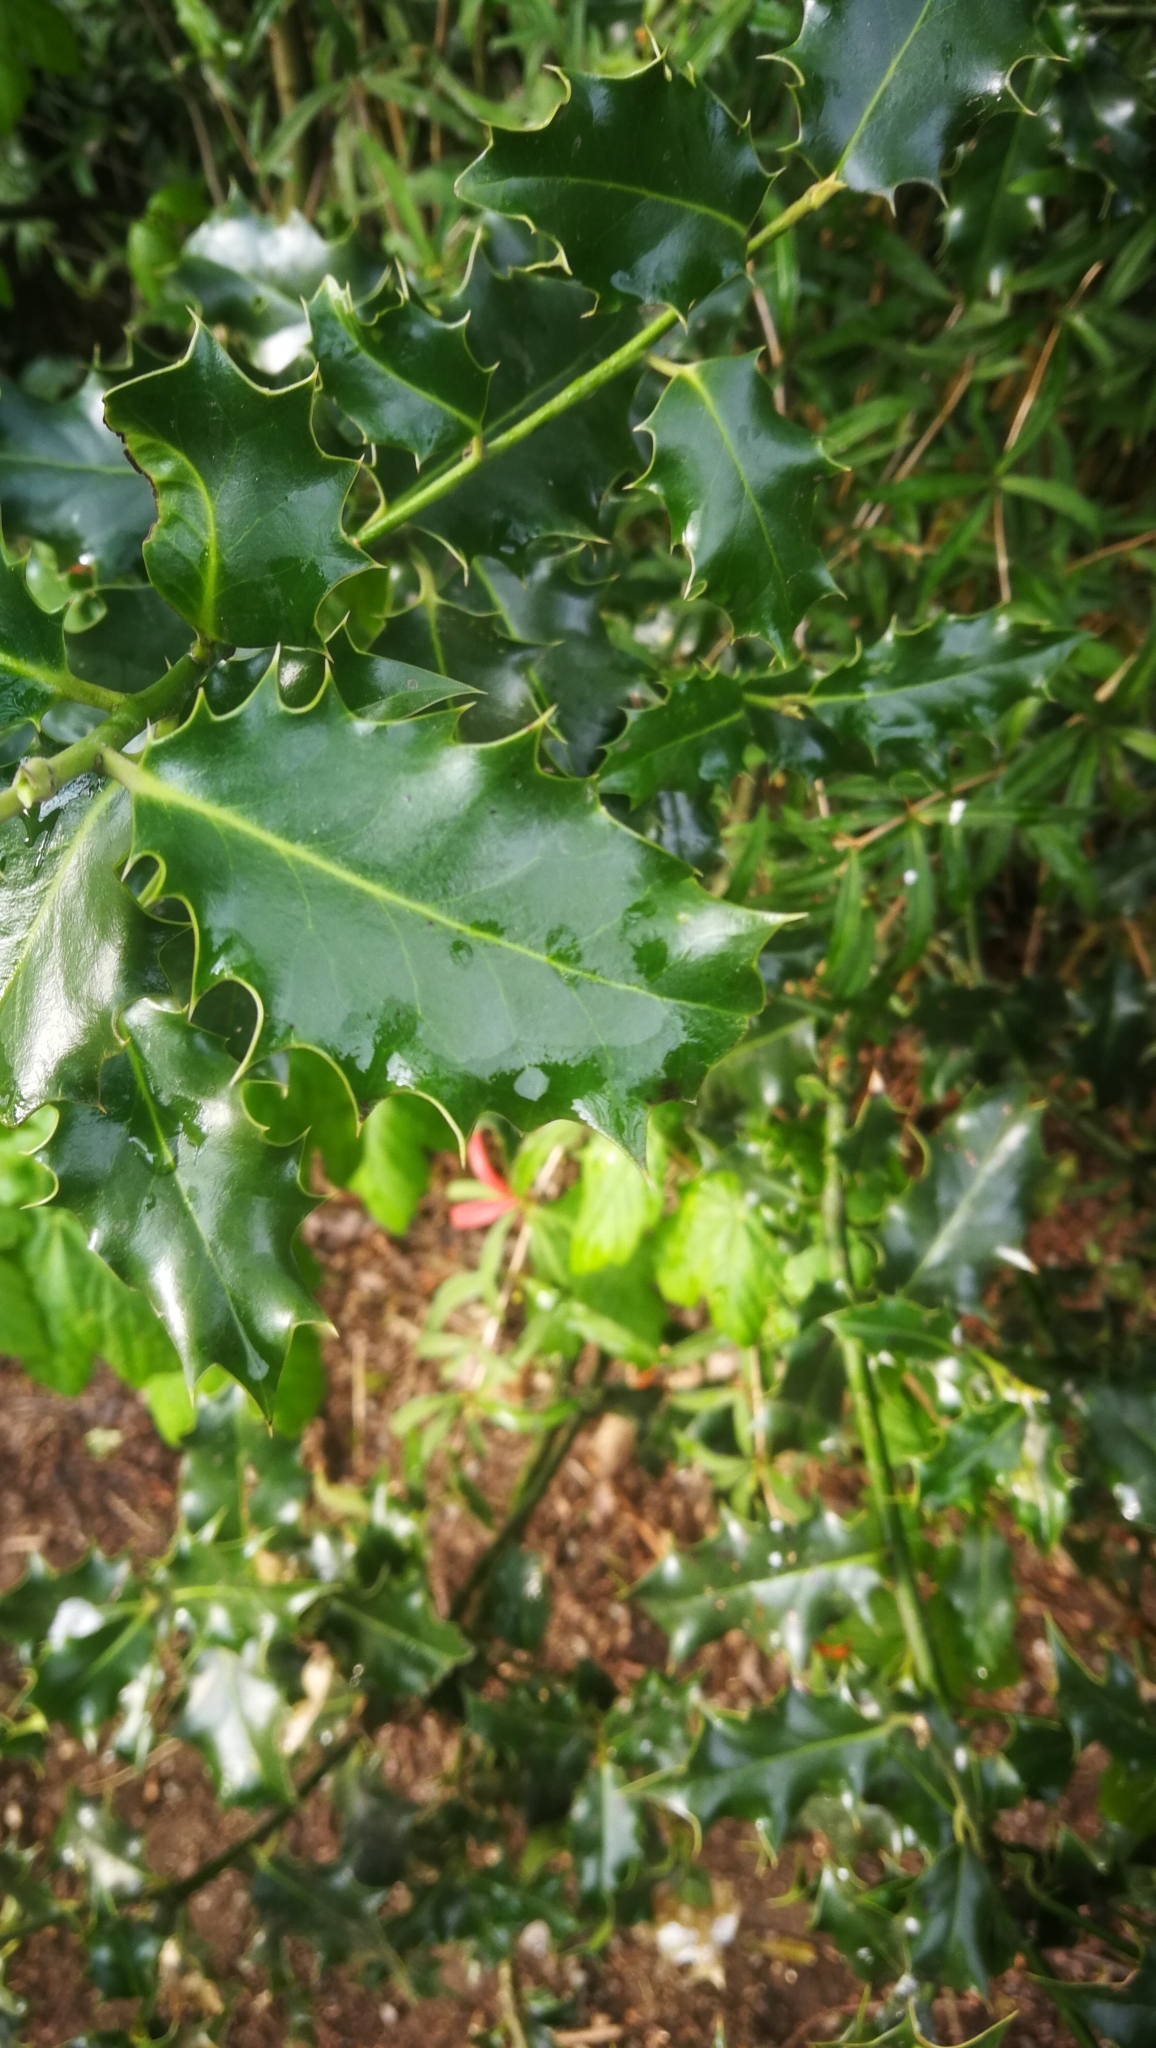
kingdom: Plantae
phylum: Tracheophyta
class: Magnoliopsida
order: Aquifoliales
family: Aquifoliaceae
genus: Ilex
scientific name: Ilex aquifolium
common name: English holly
